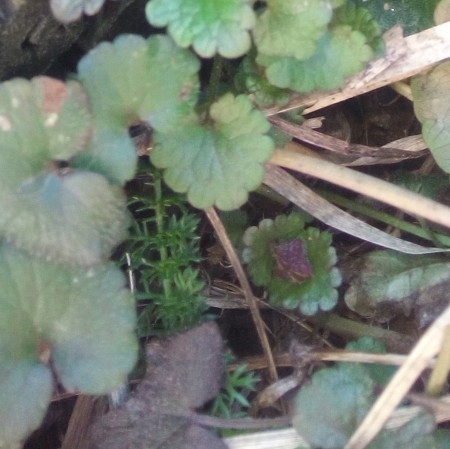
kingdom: Plantae
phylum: Tracheophyta
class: Magnoliopsida
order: Lamiales
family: Lamiaceae
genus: Glechoma
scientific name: Glechoma hederacea
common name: Ground ivy
